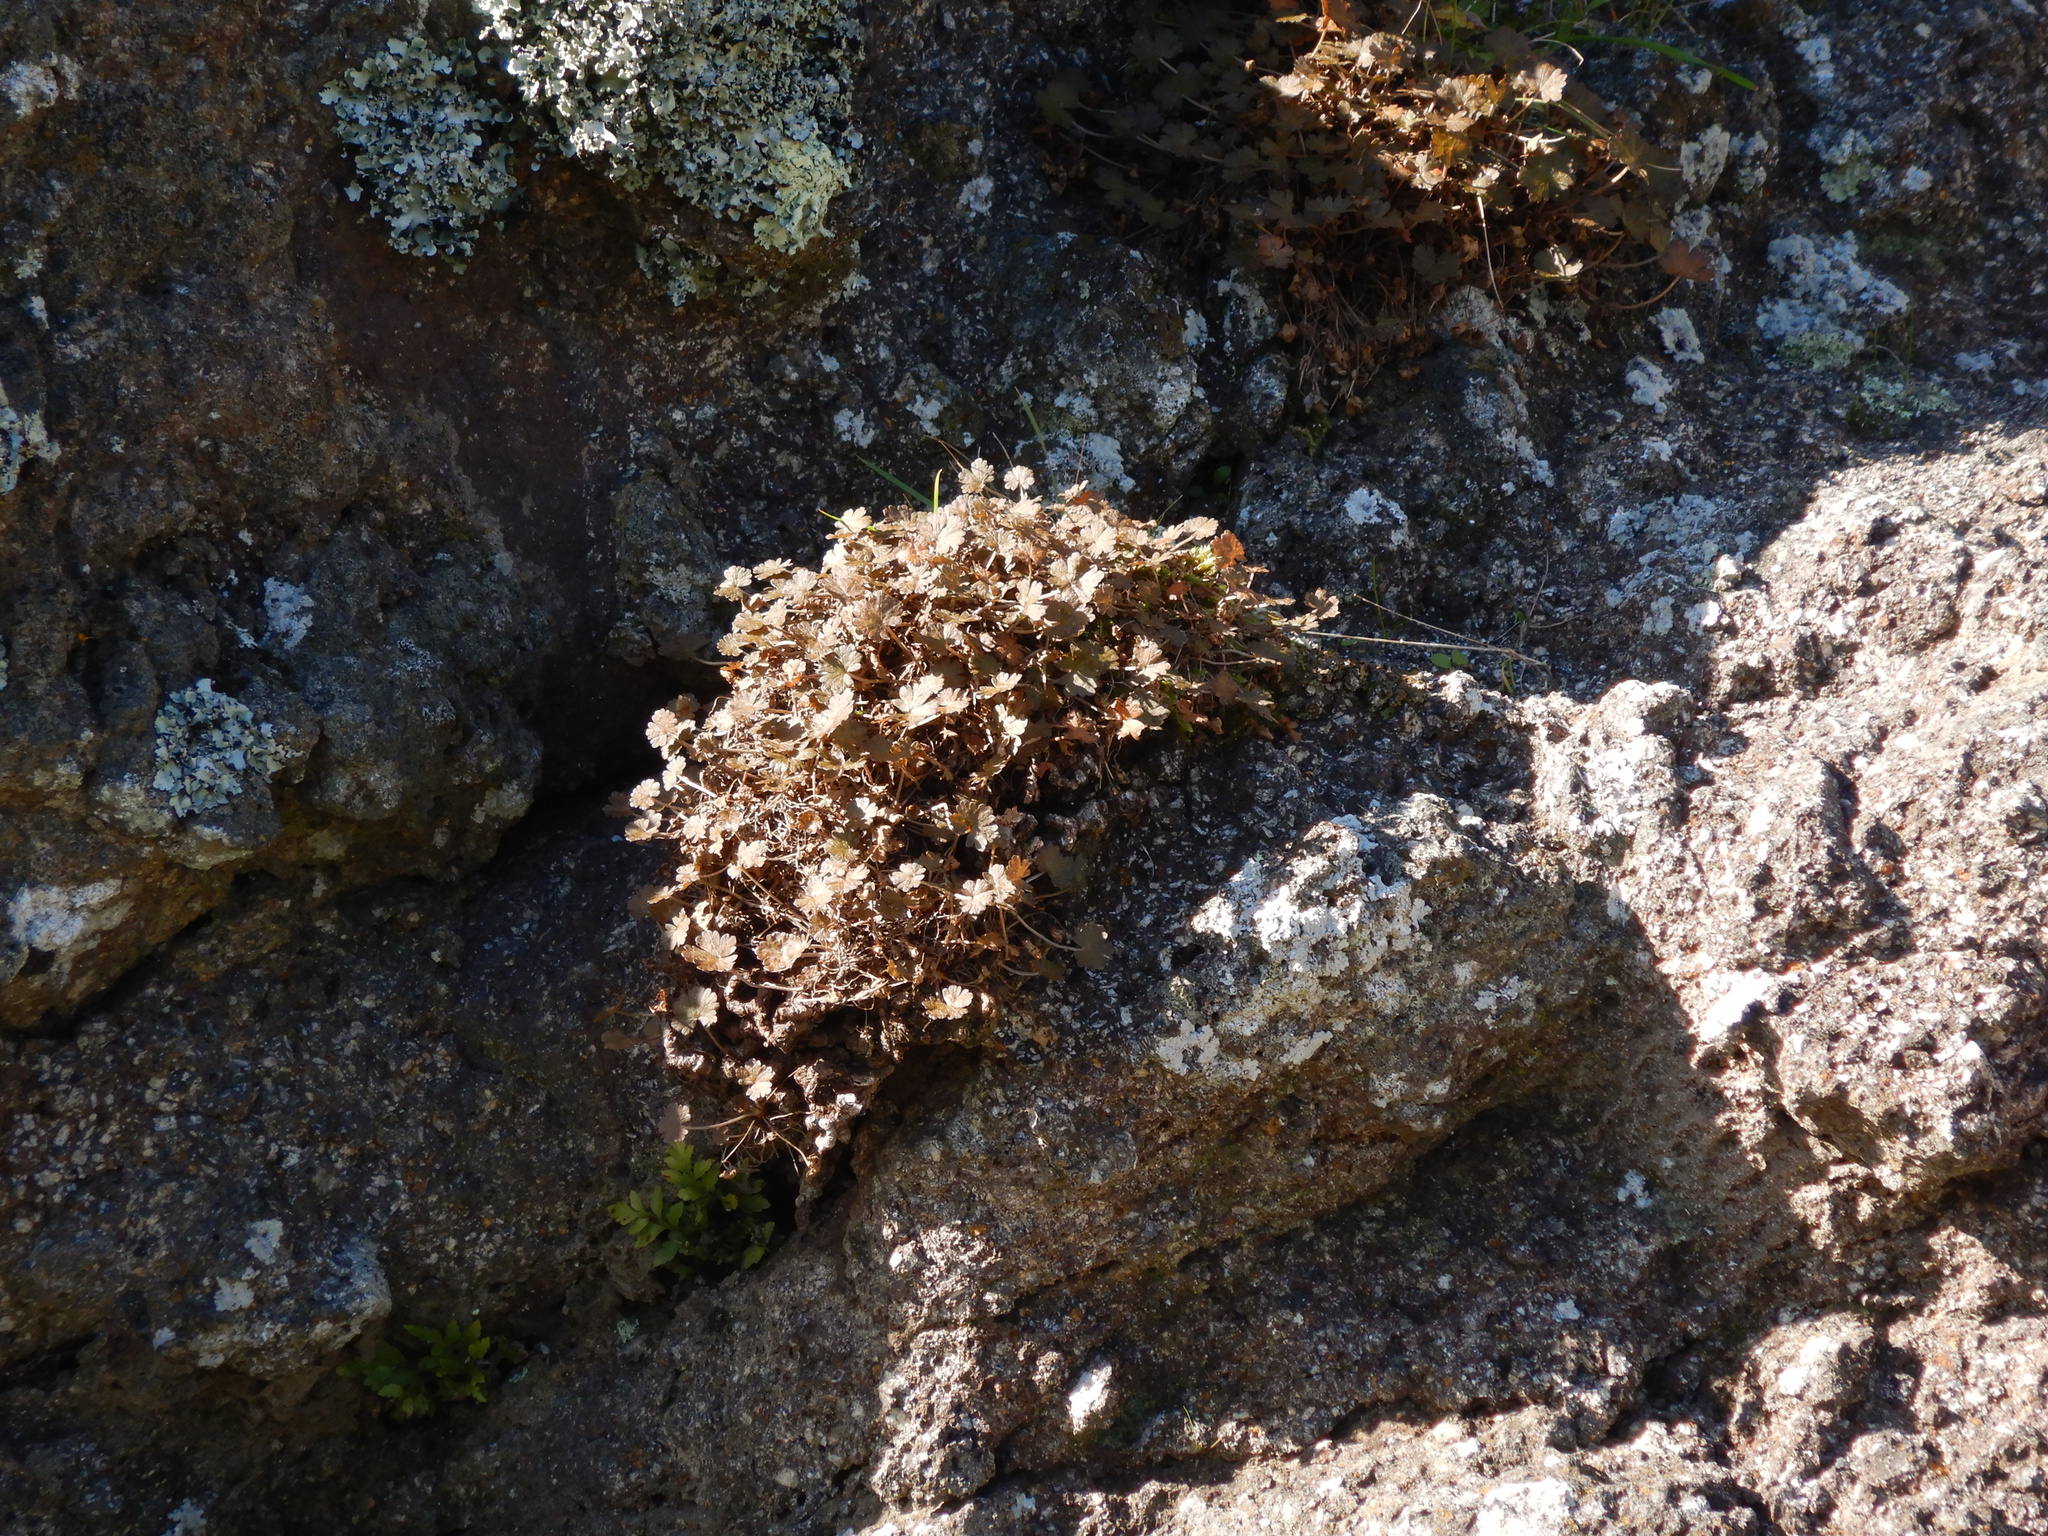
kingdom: Plantae
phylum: Tracheophyta
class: Magnoliopsida
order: Geraniales
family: Geraniaceae
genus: Geranium
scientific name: Geranium brevicaule
